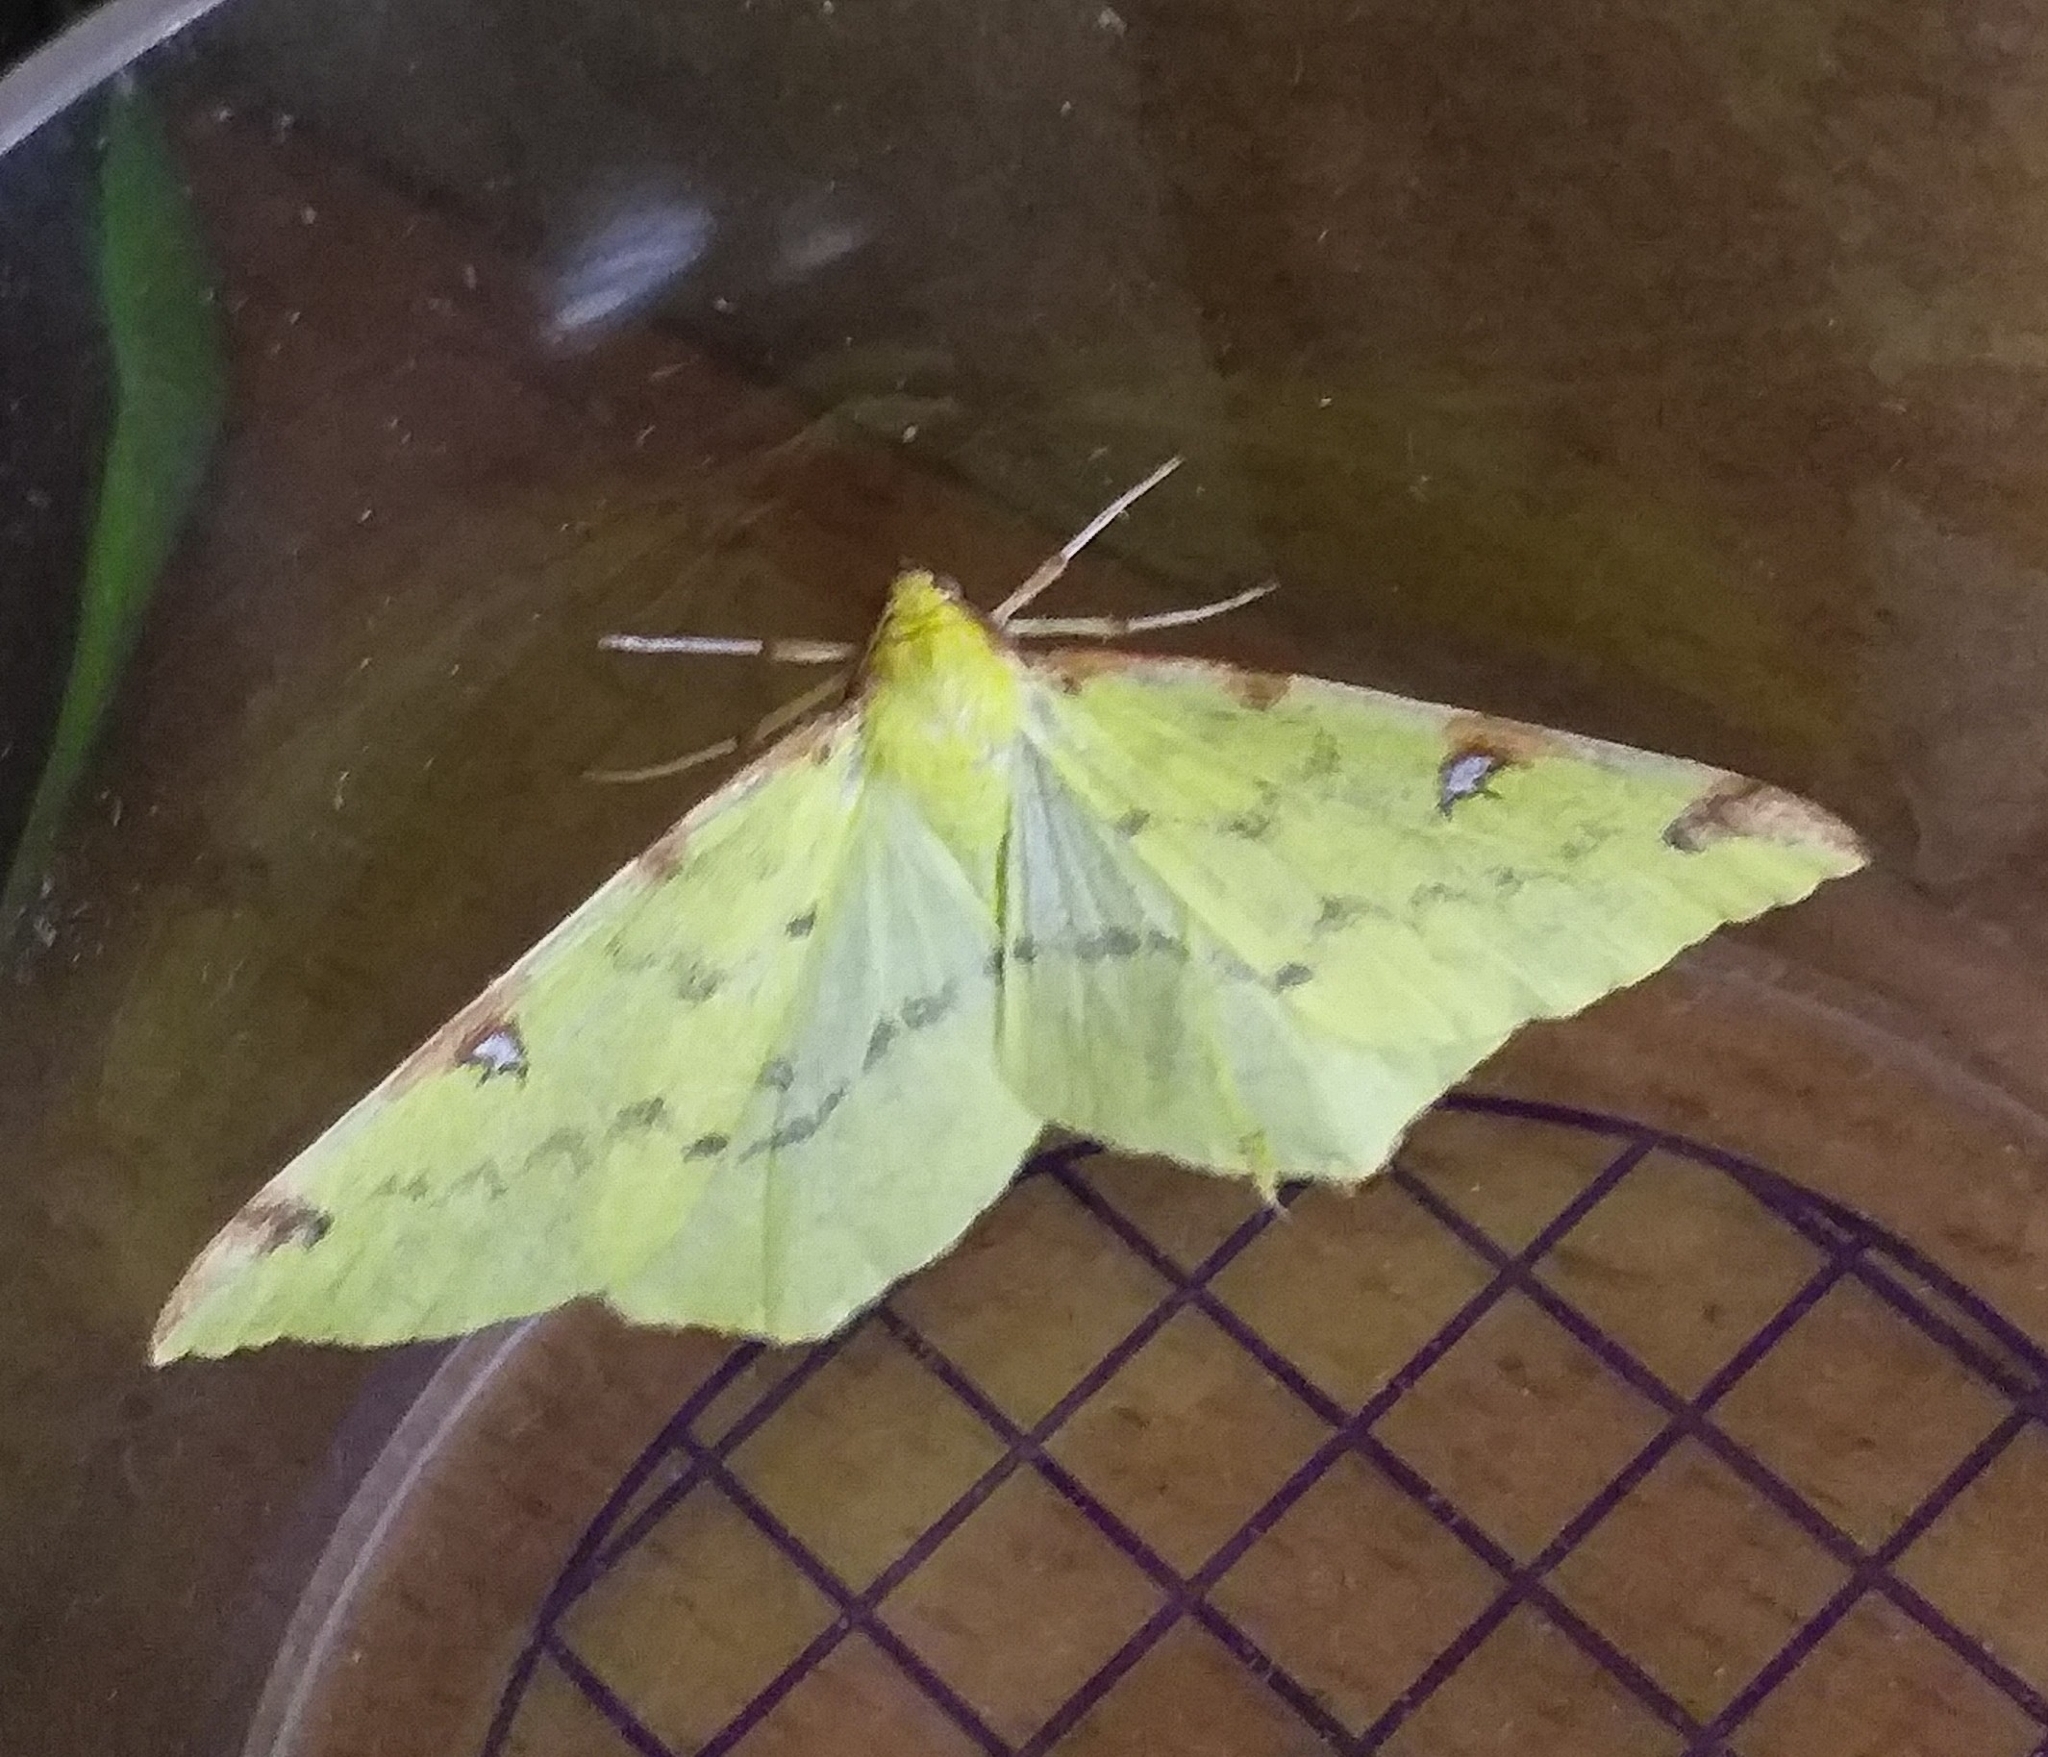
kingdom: Animalia
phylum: Arthropoda
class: Insecta
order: Lepidoptera
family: Geometridae
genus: Opisthograptis
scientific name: Opisthograptis luteolata
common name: Brimstone moth
